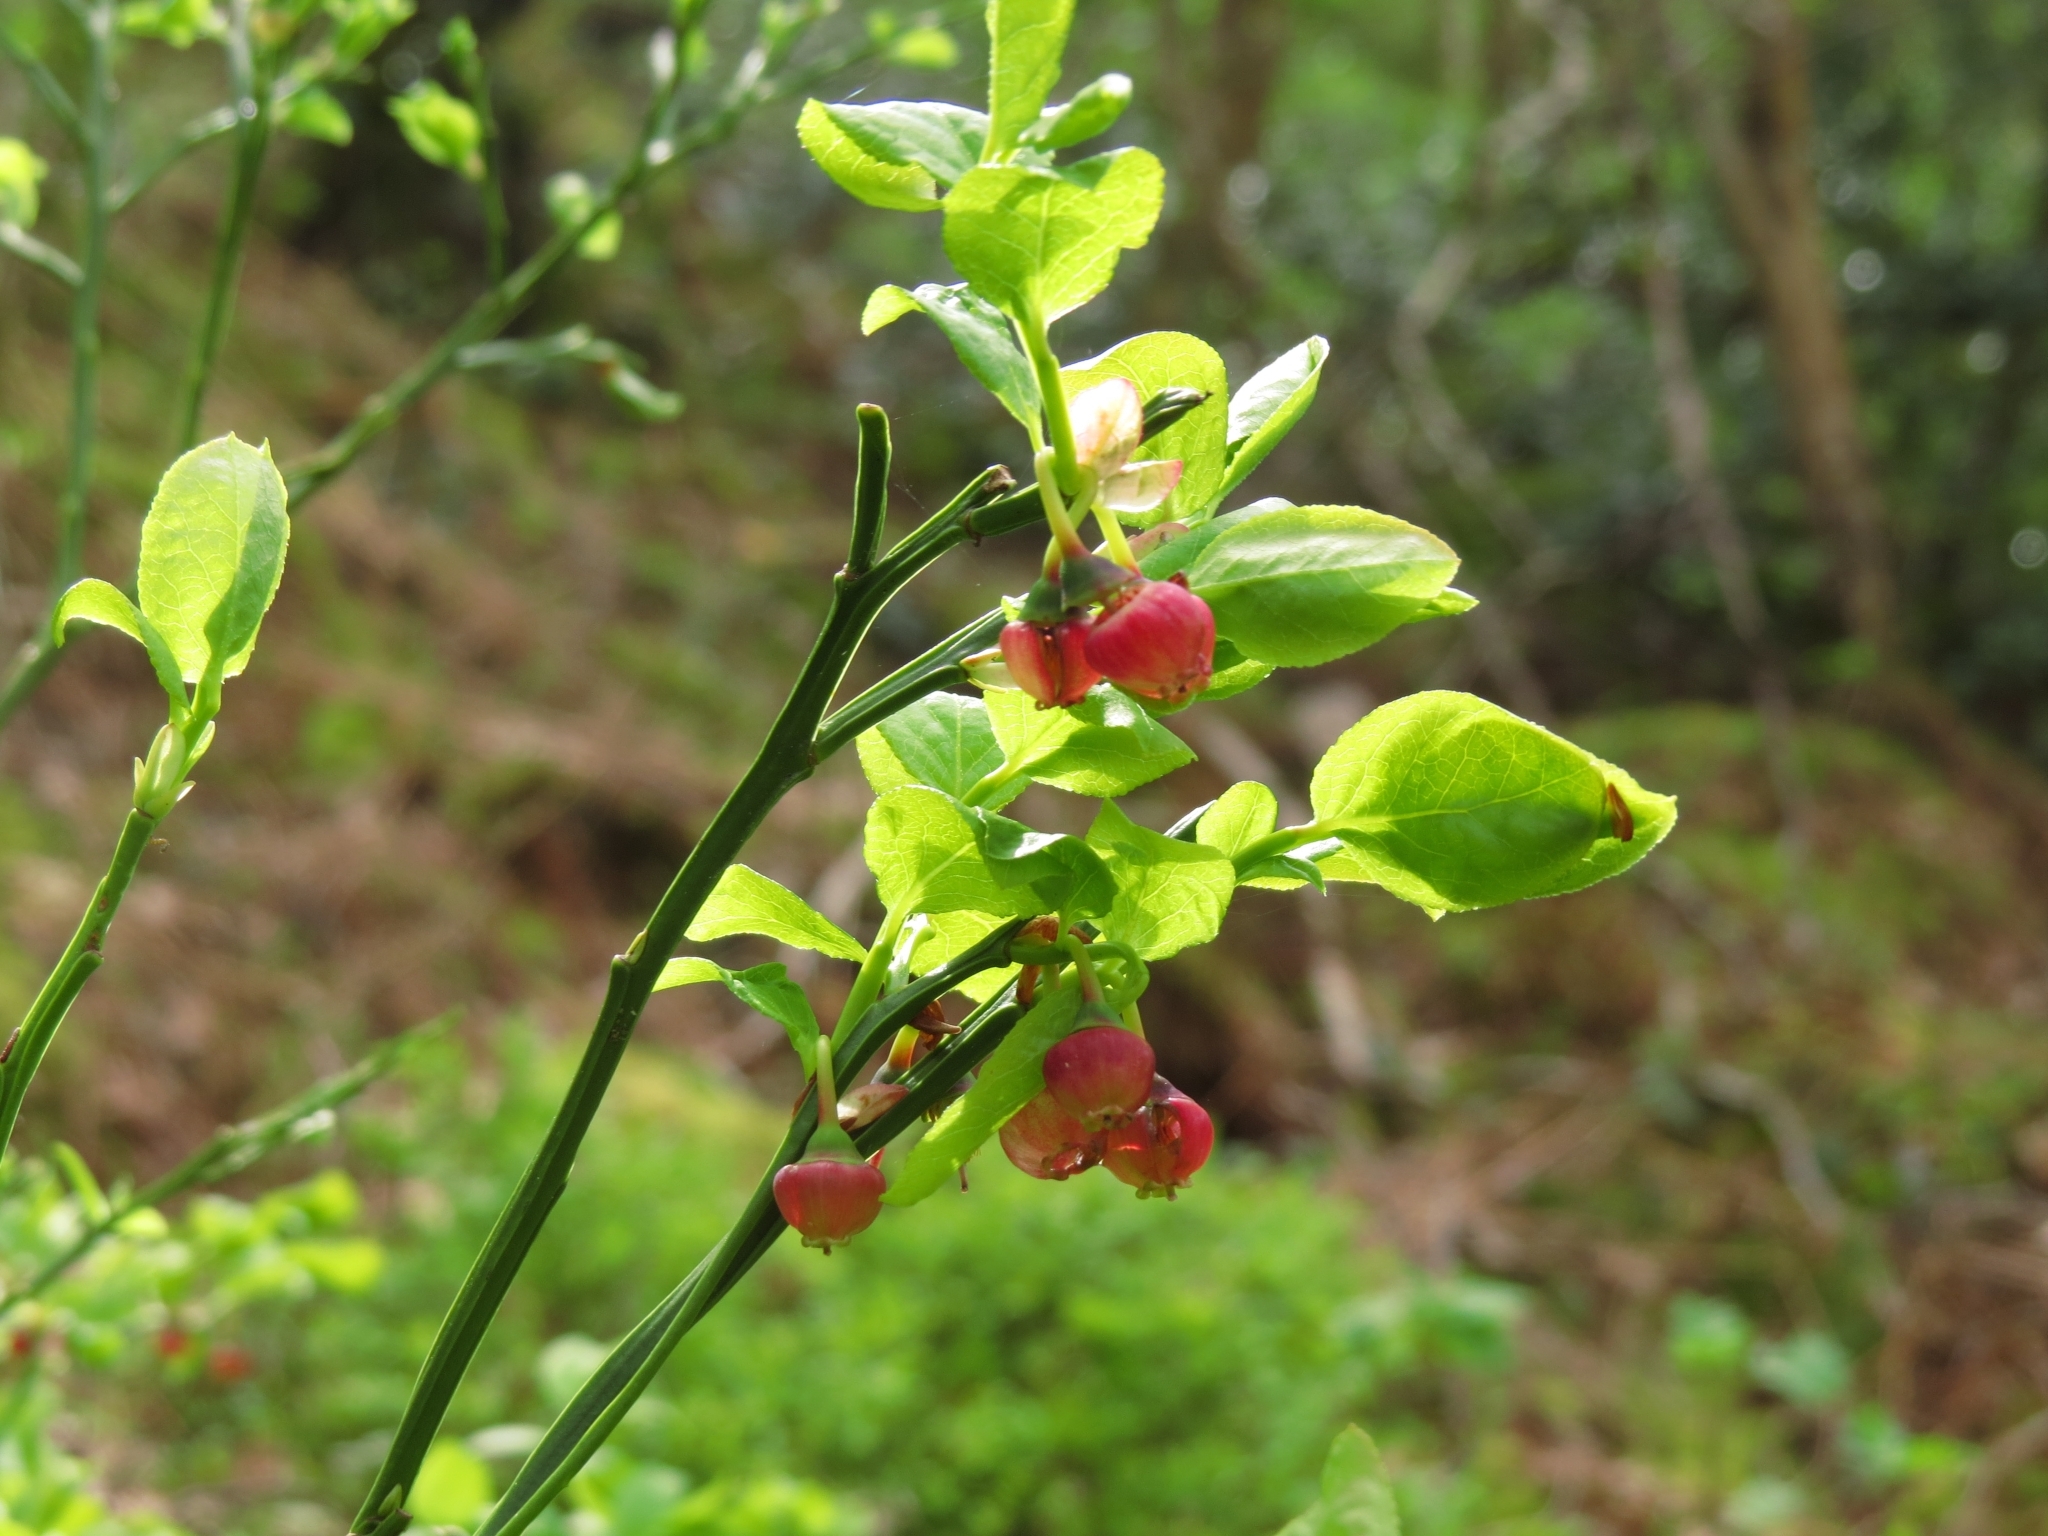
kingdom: Plantae
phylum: Tracheophyta
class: Magnoliopsida
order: Ericales
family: Ericaceae
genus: Vaccinium
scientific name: Vaccinium myrtillus
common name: Bilberry
